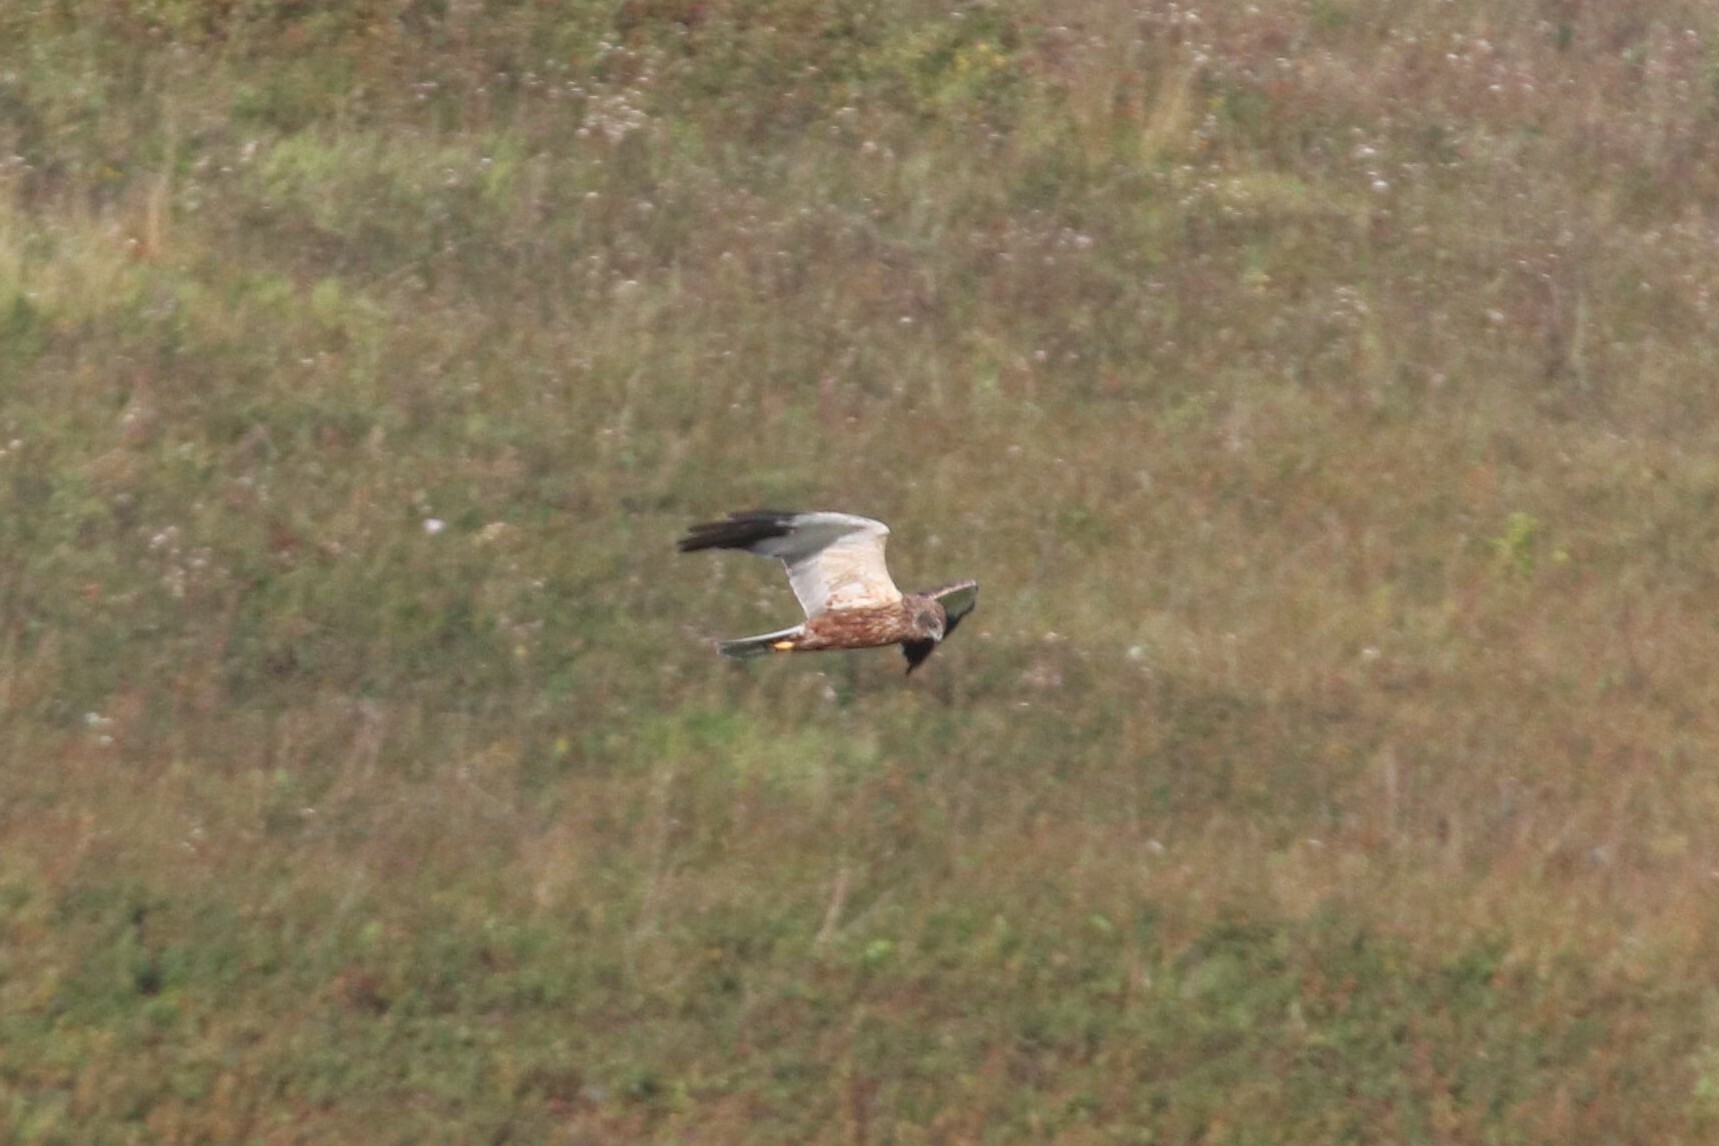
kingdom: Animalia
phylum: Chordata
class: Aves
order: Accipitriformes
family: Accipitridae
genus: Circus
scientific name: Circus aeruginosus
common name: Western marsh harrier
